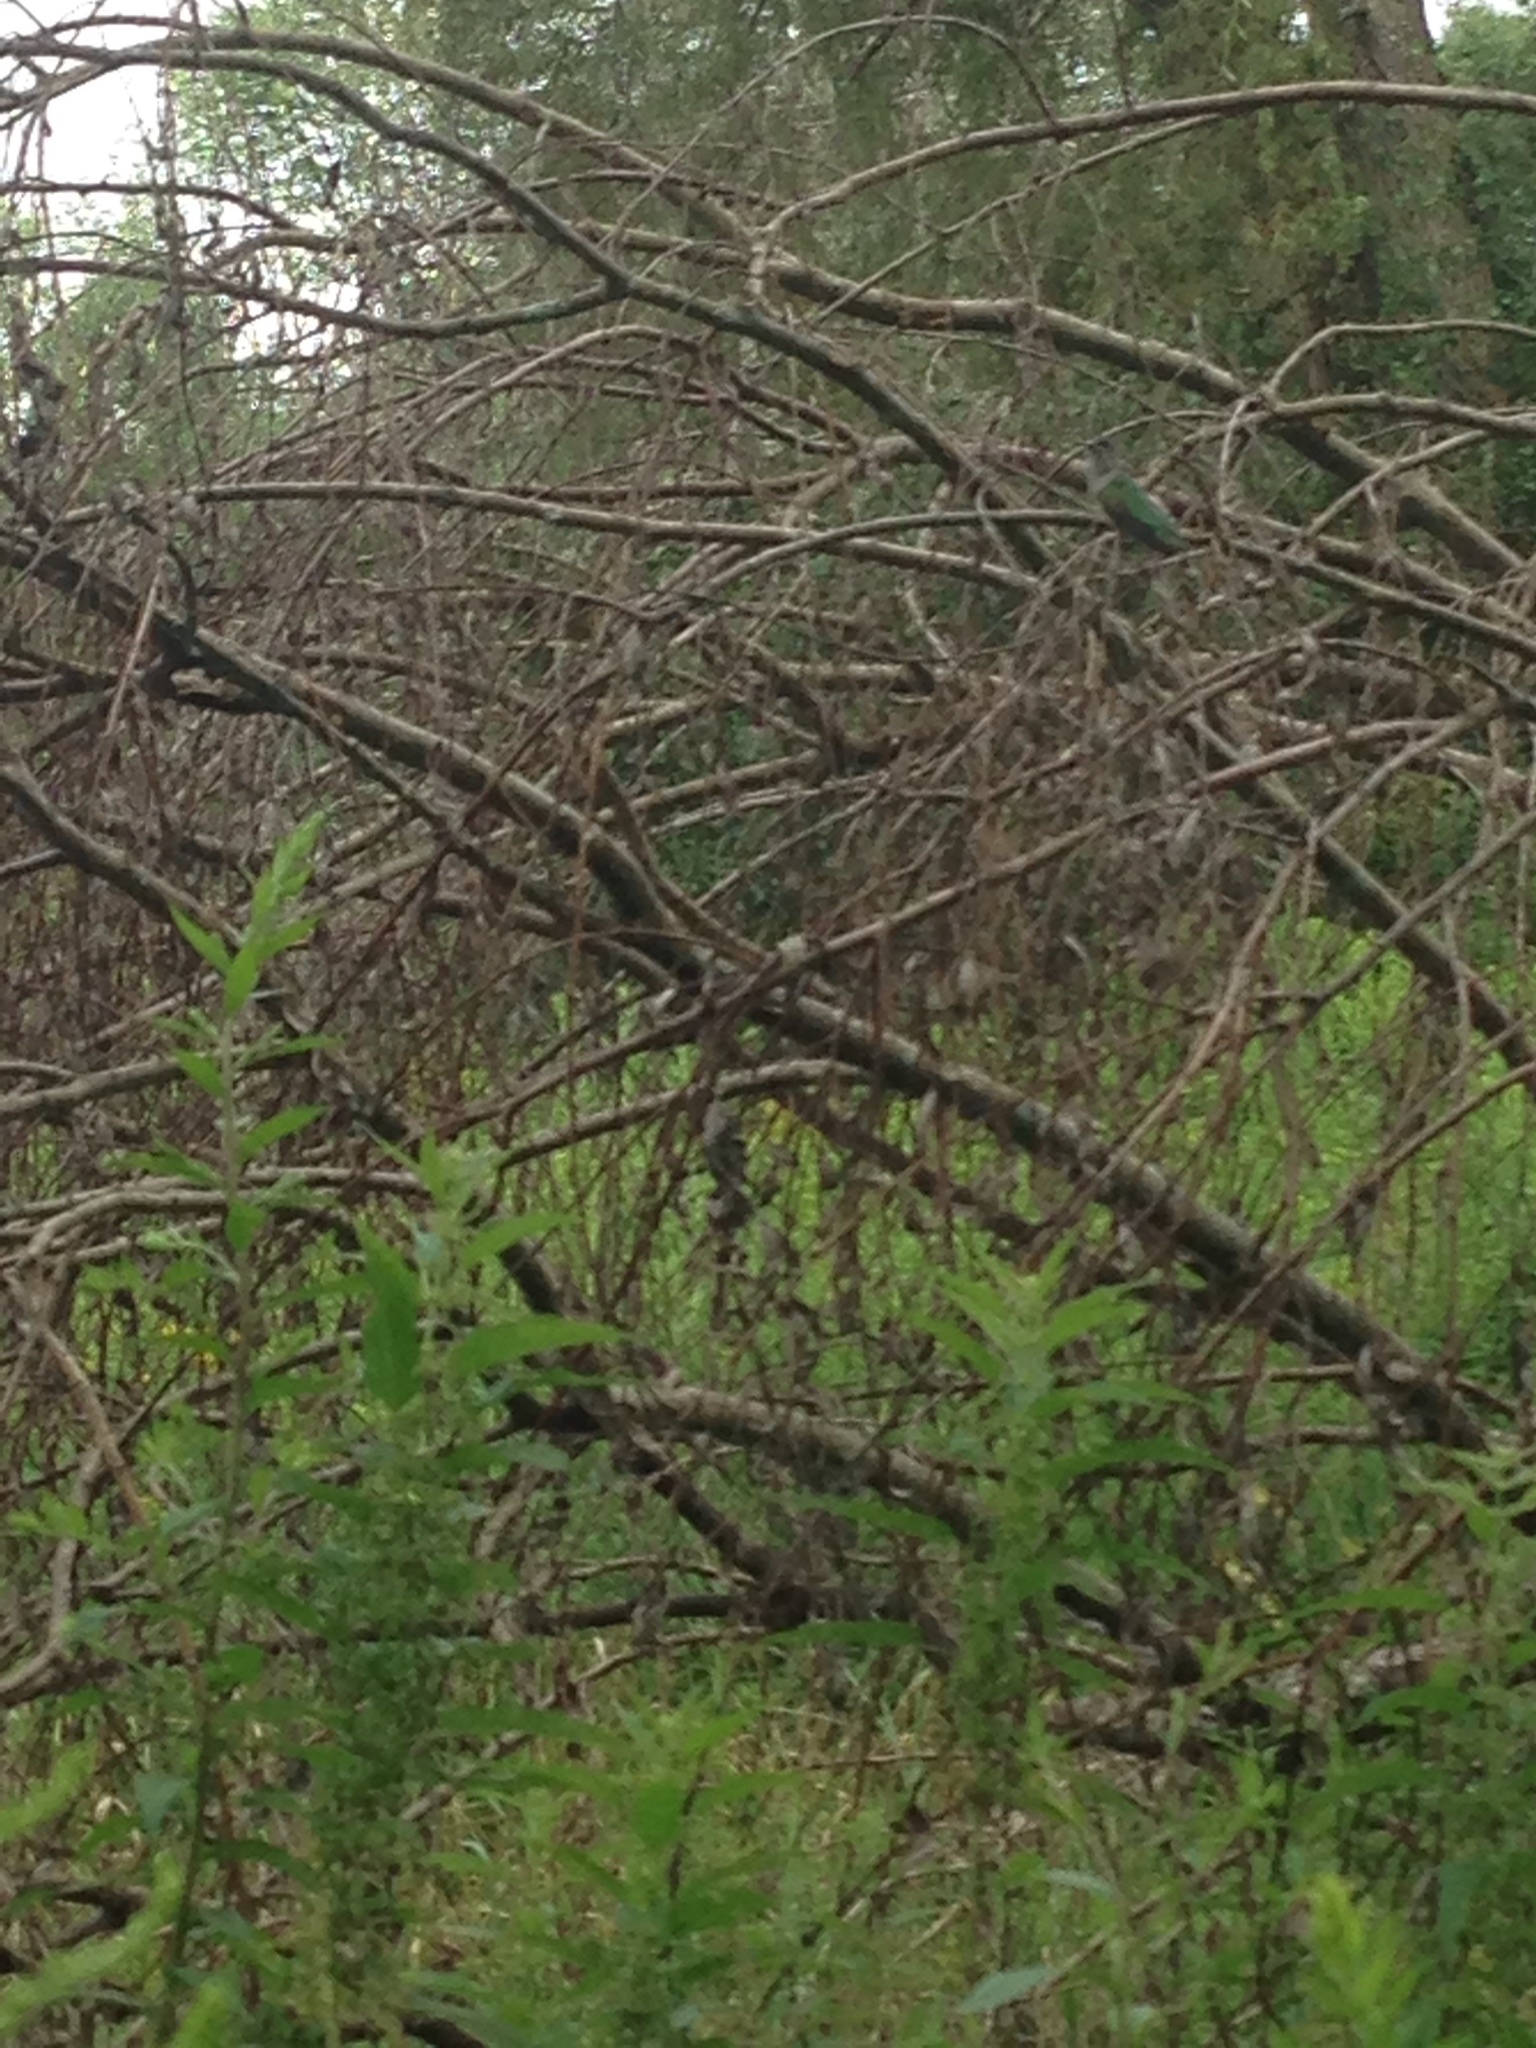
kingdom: Animalia
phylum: Chordata
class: Aves
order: Apodiformes
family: Trochilidae
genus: Archilochus
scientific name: Archilochus colubris
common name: Ruby-throated hummingbird
